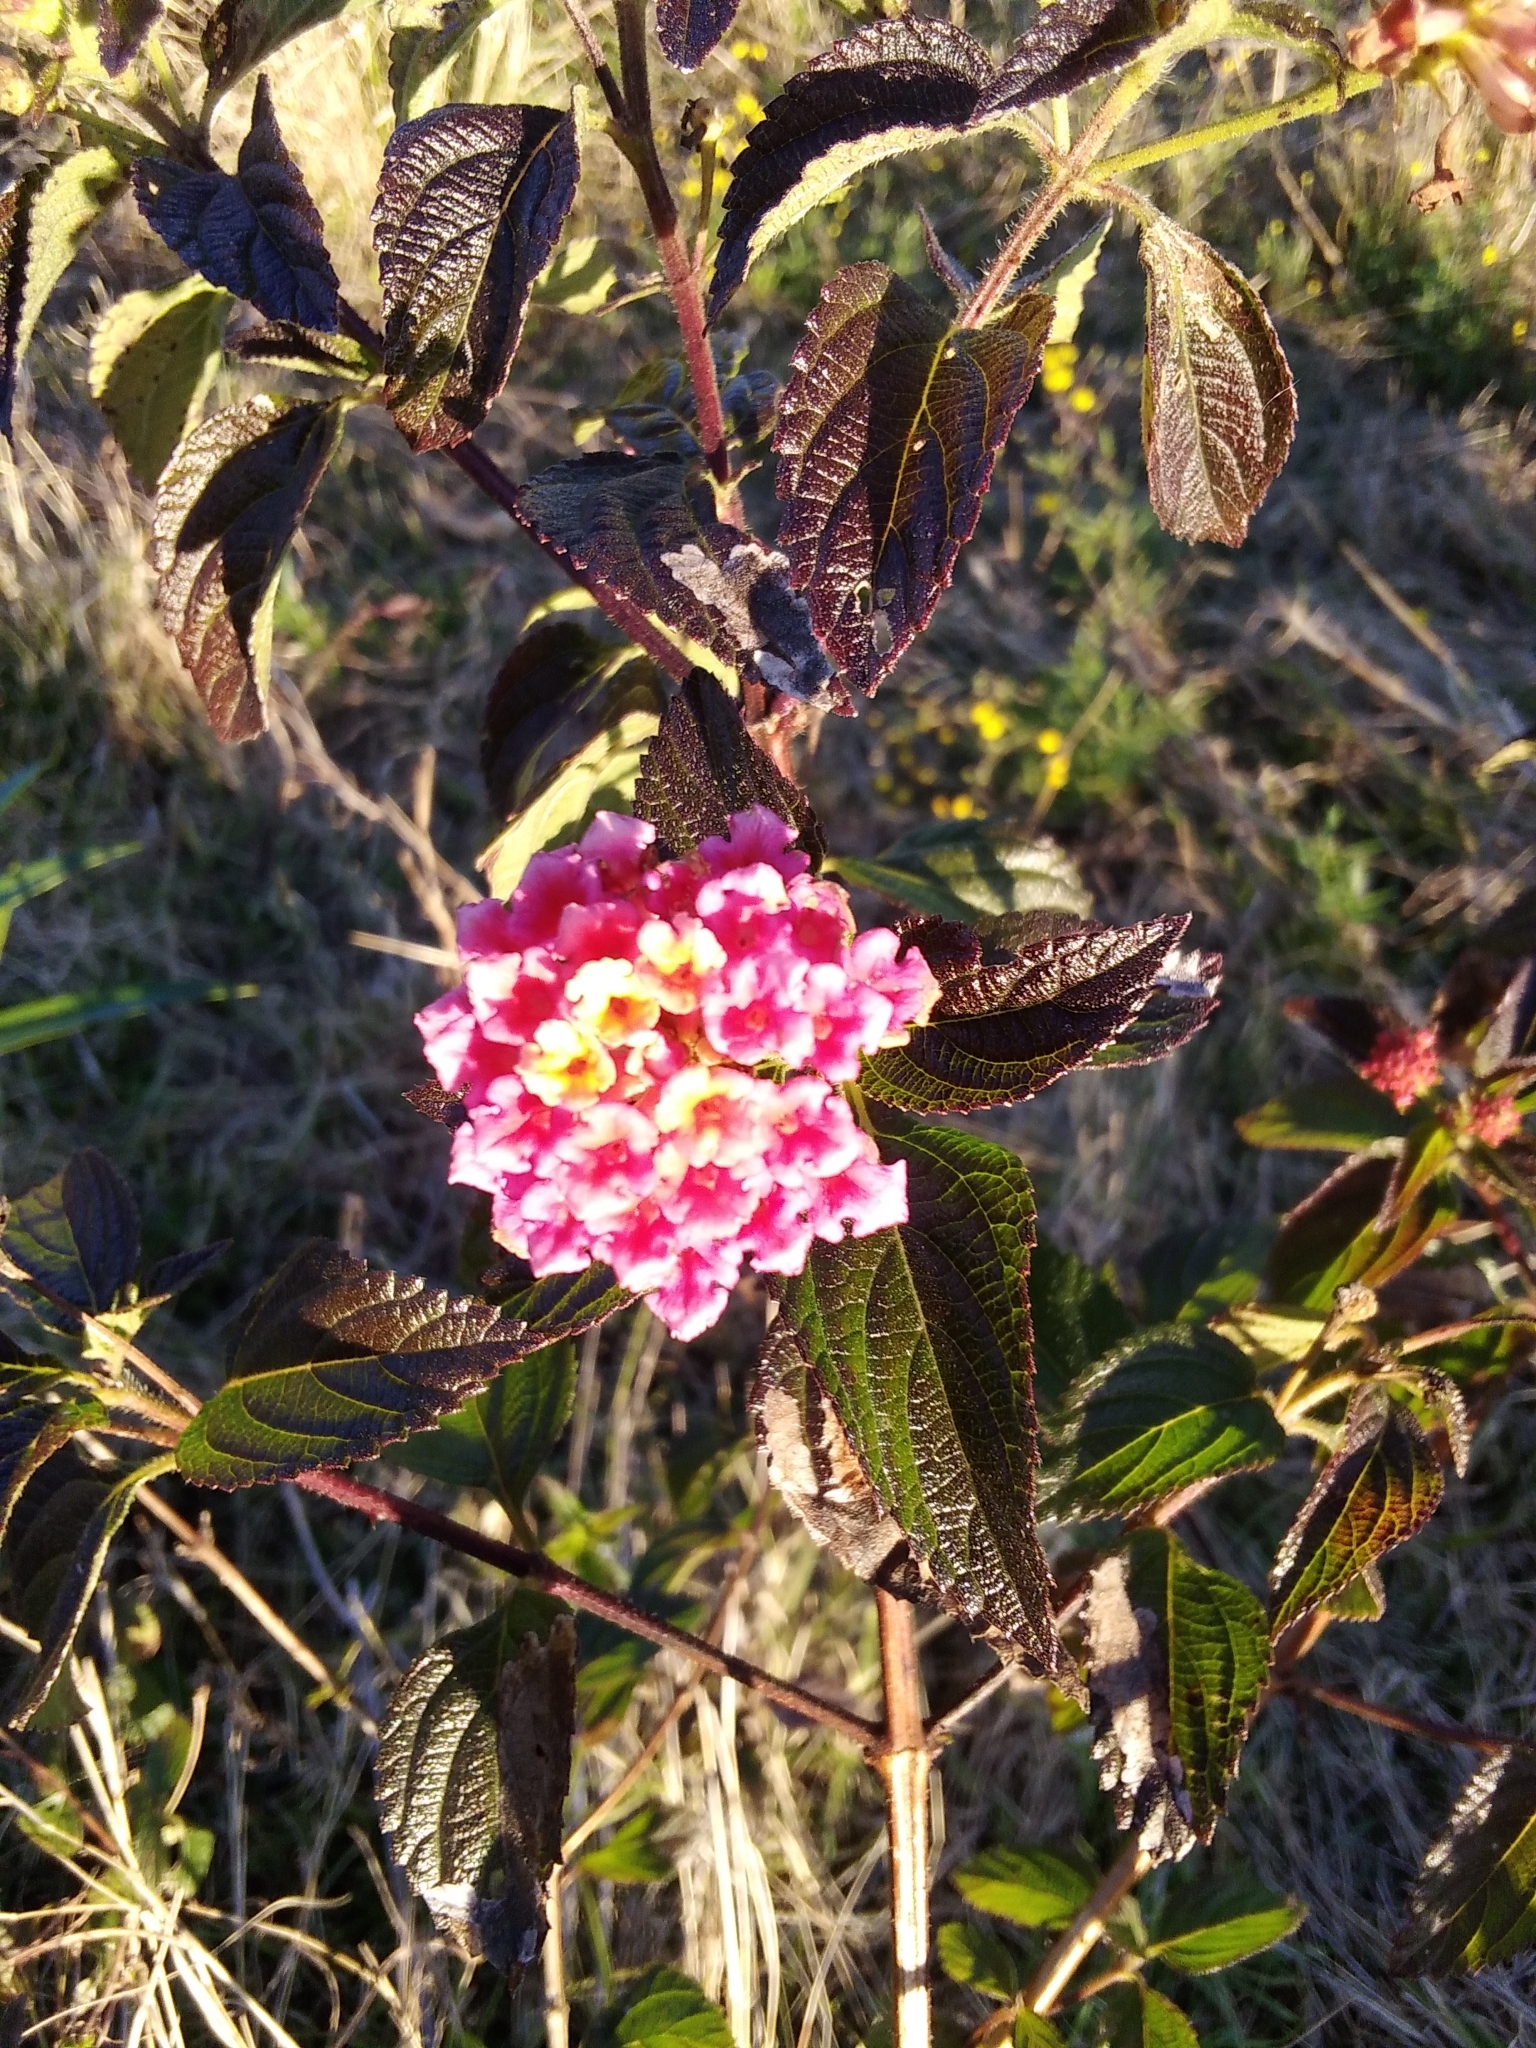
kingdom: Plantae
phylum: Tracheophyta
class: Magnoliopsida
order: Lamiales
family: Verbenaceae
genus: Lantana
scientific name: Lantana camara
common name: Lantana
